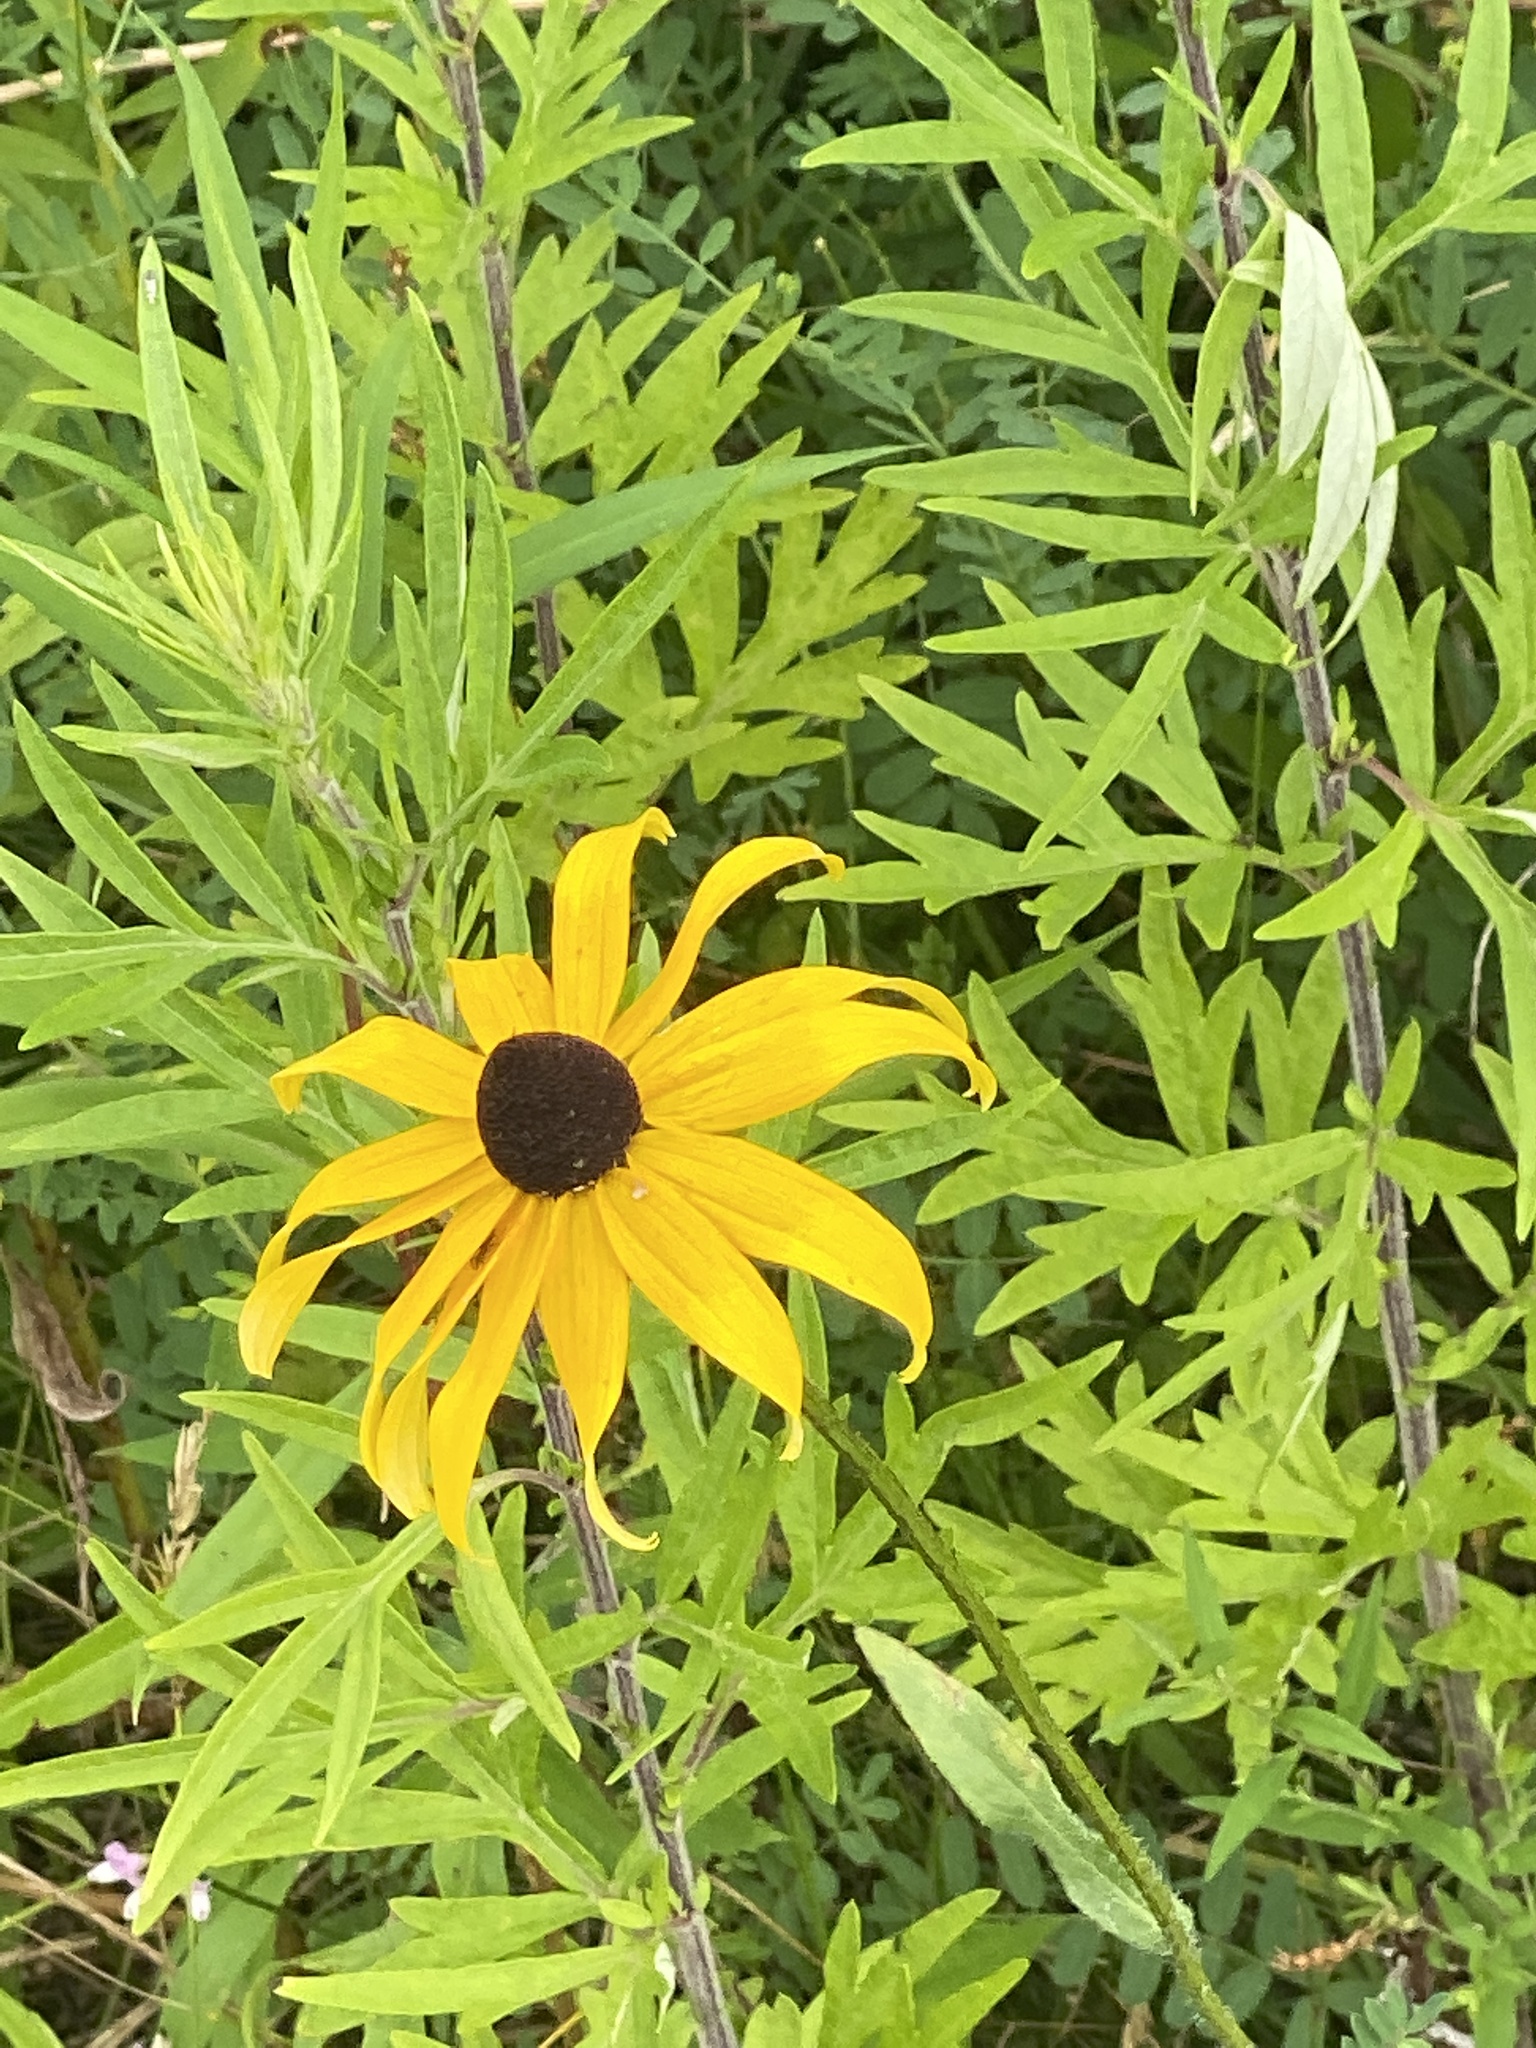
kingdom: Plantae
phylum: Tracheophyta
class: Magnoliopsida
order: Asterales
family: Asteraceae
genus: Rudbeckia
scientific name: Rudbeckia hirta
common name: Black-eyed-susan
